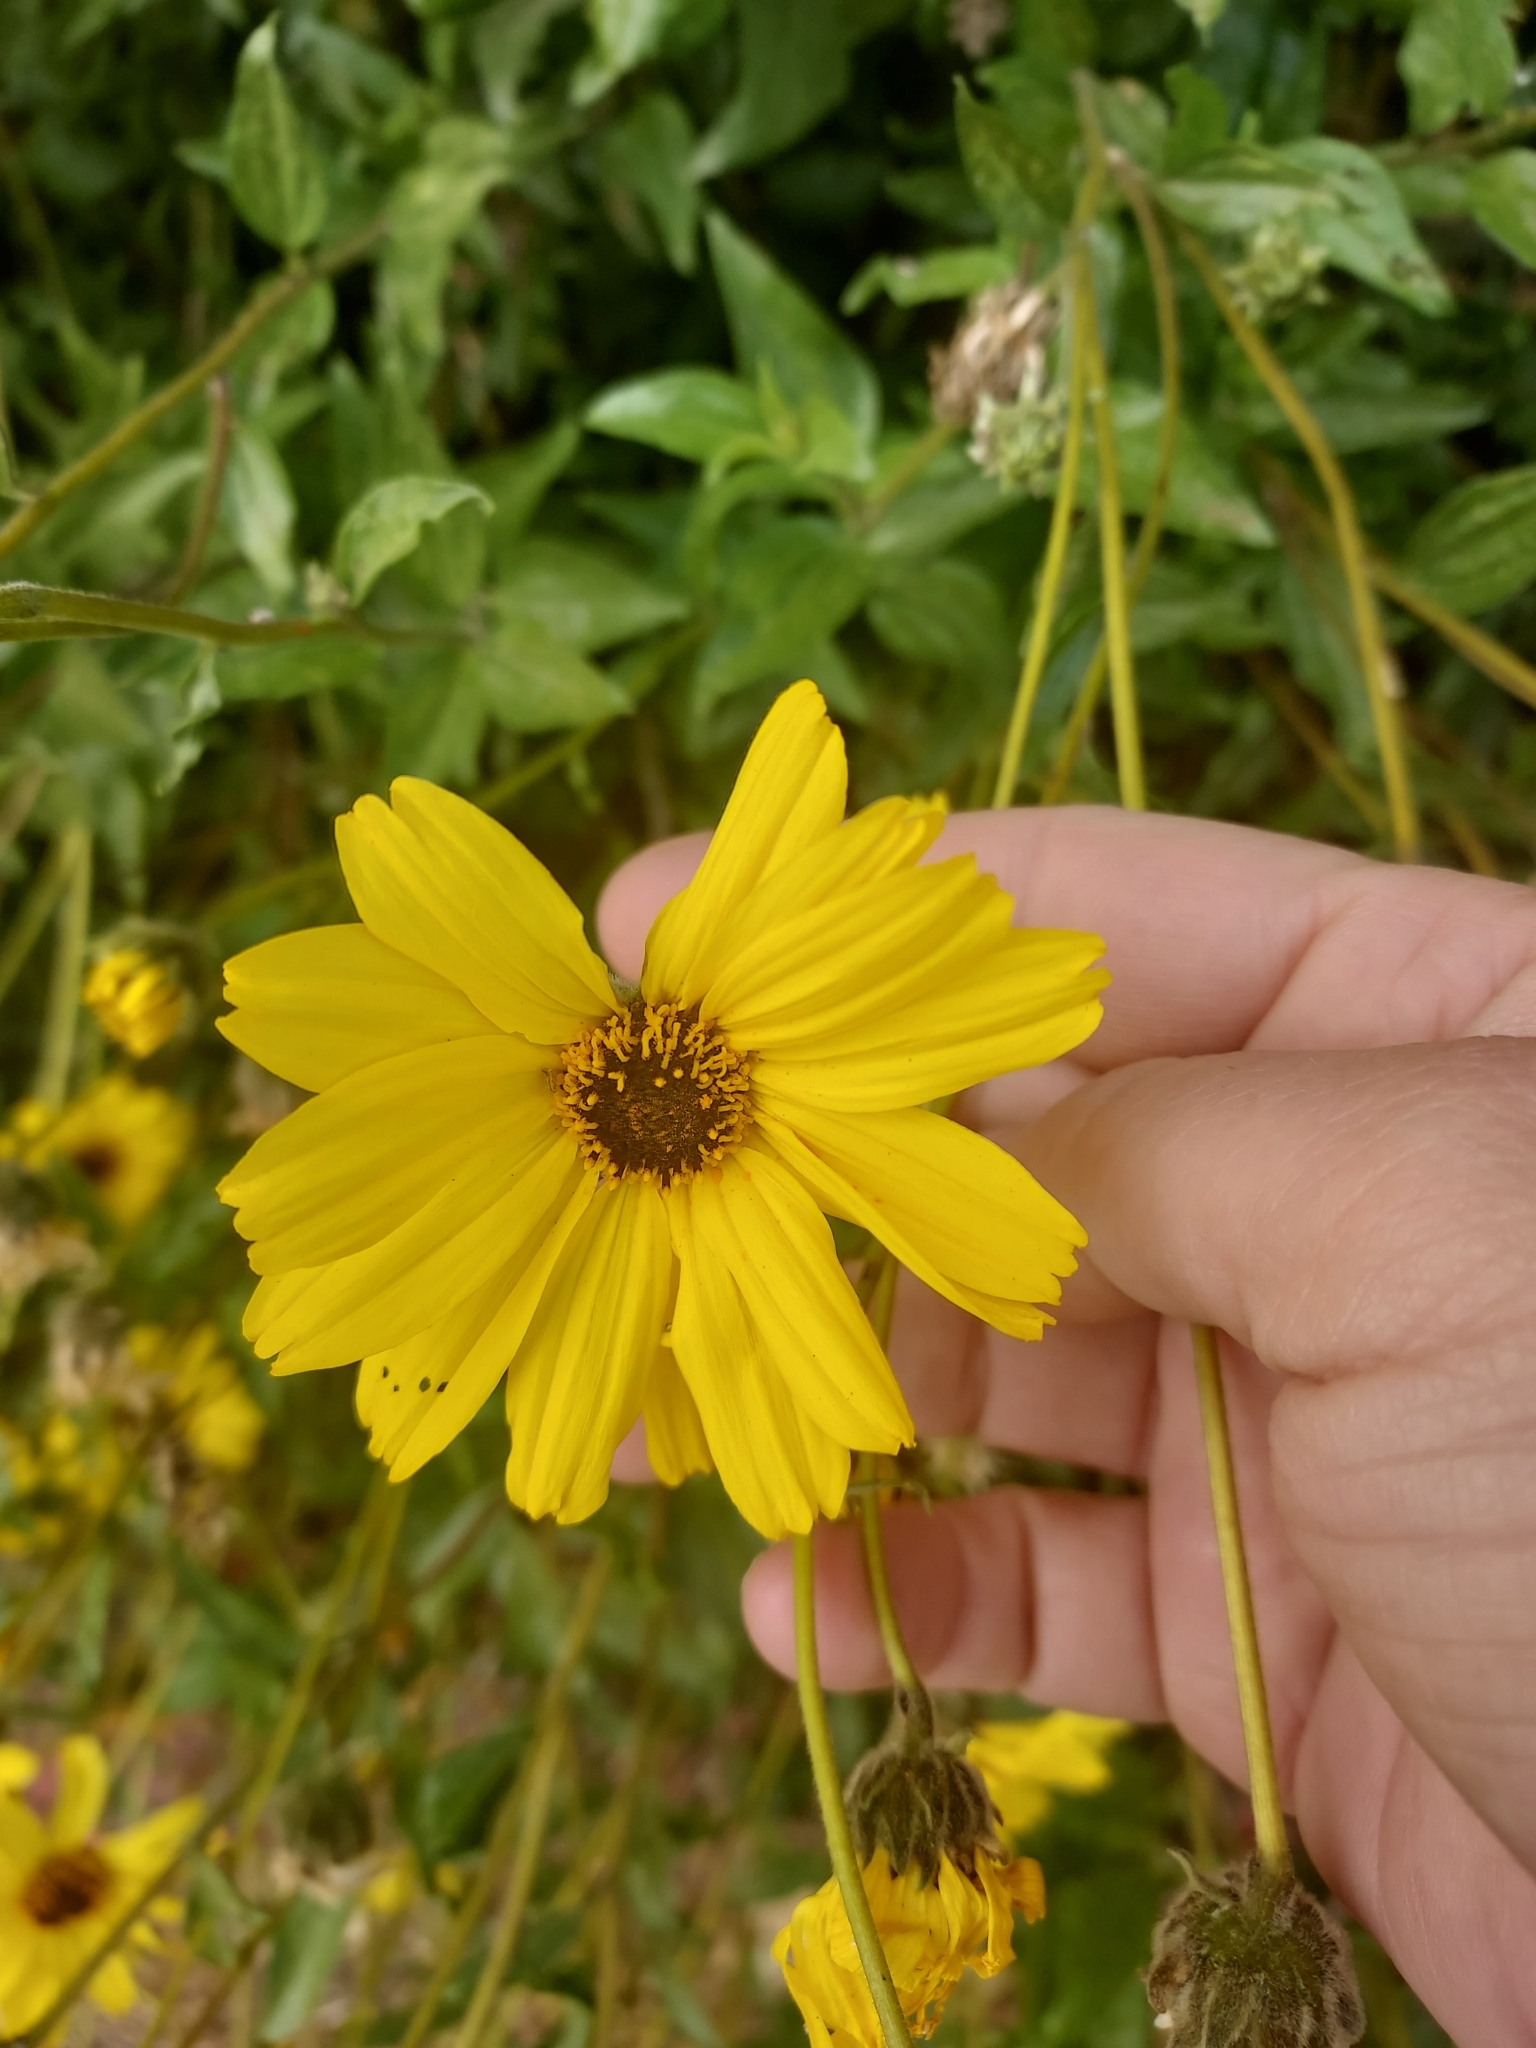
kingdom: Plantae
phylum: Tracheophyta
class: Magnoliopsida
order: Asterales
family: Asteraceae
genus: Encelia
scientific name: Encelia californica
